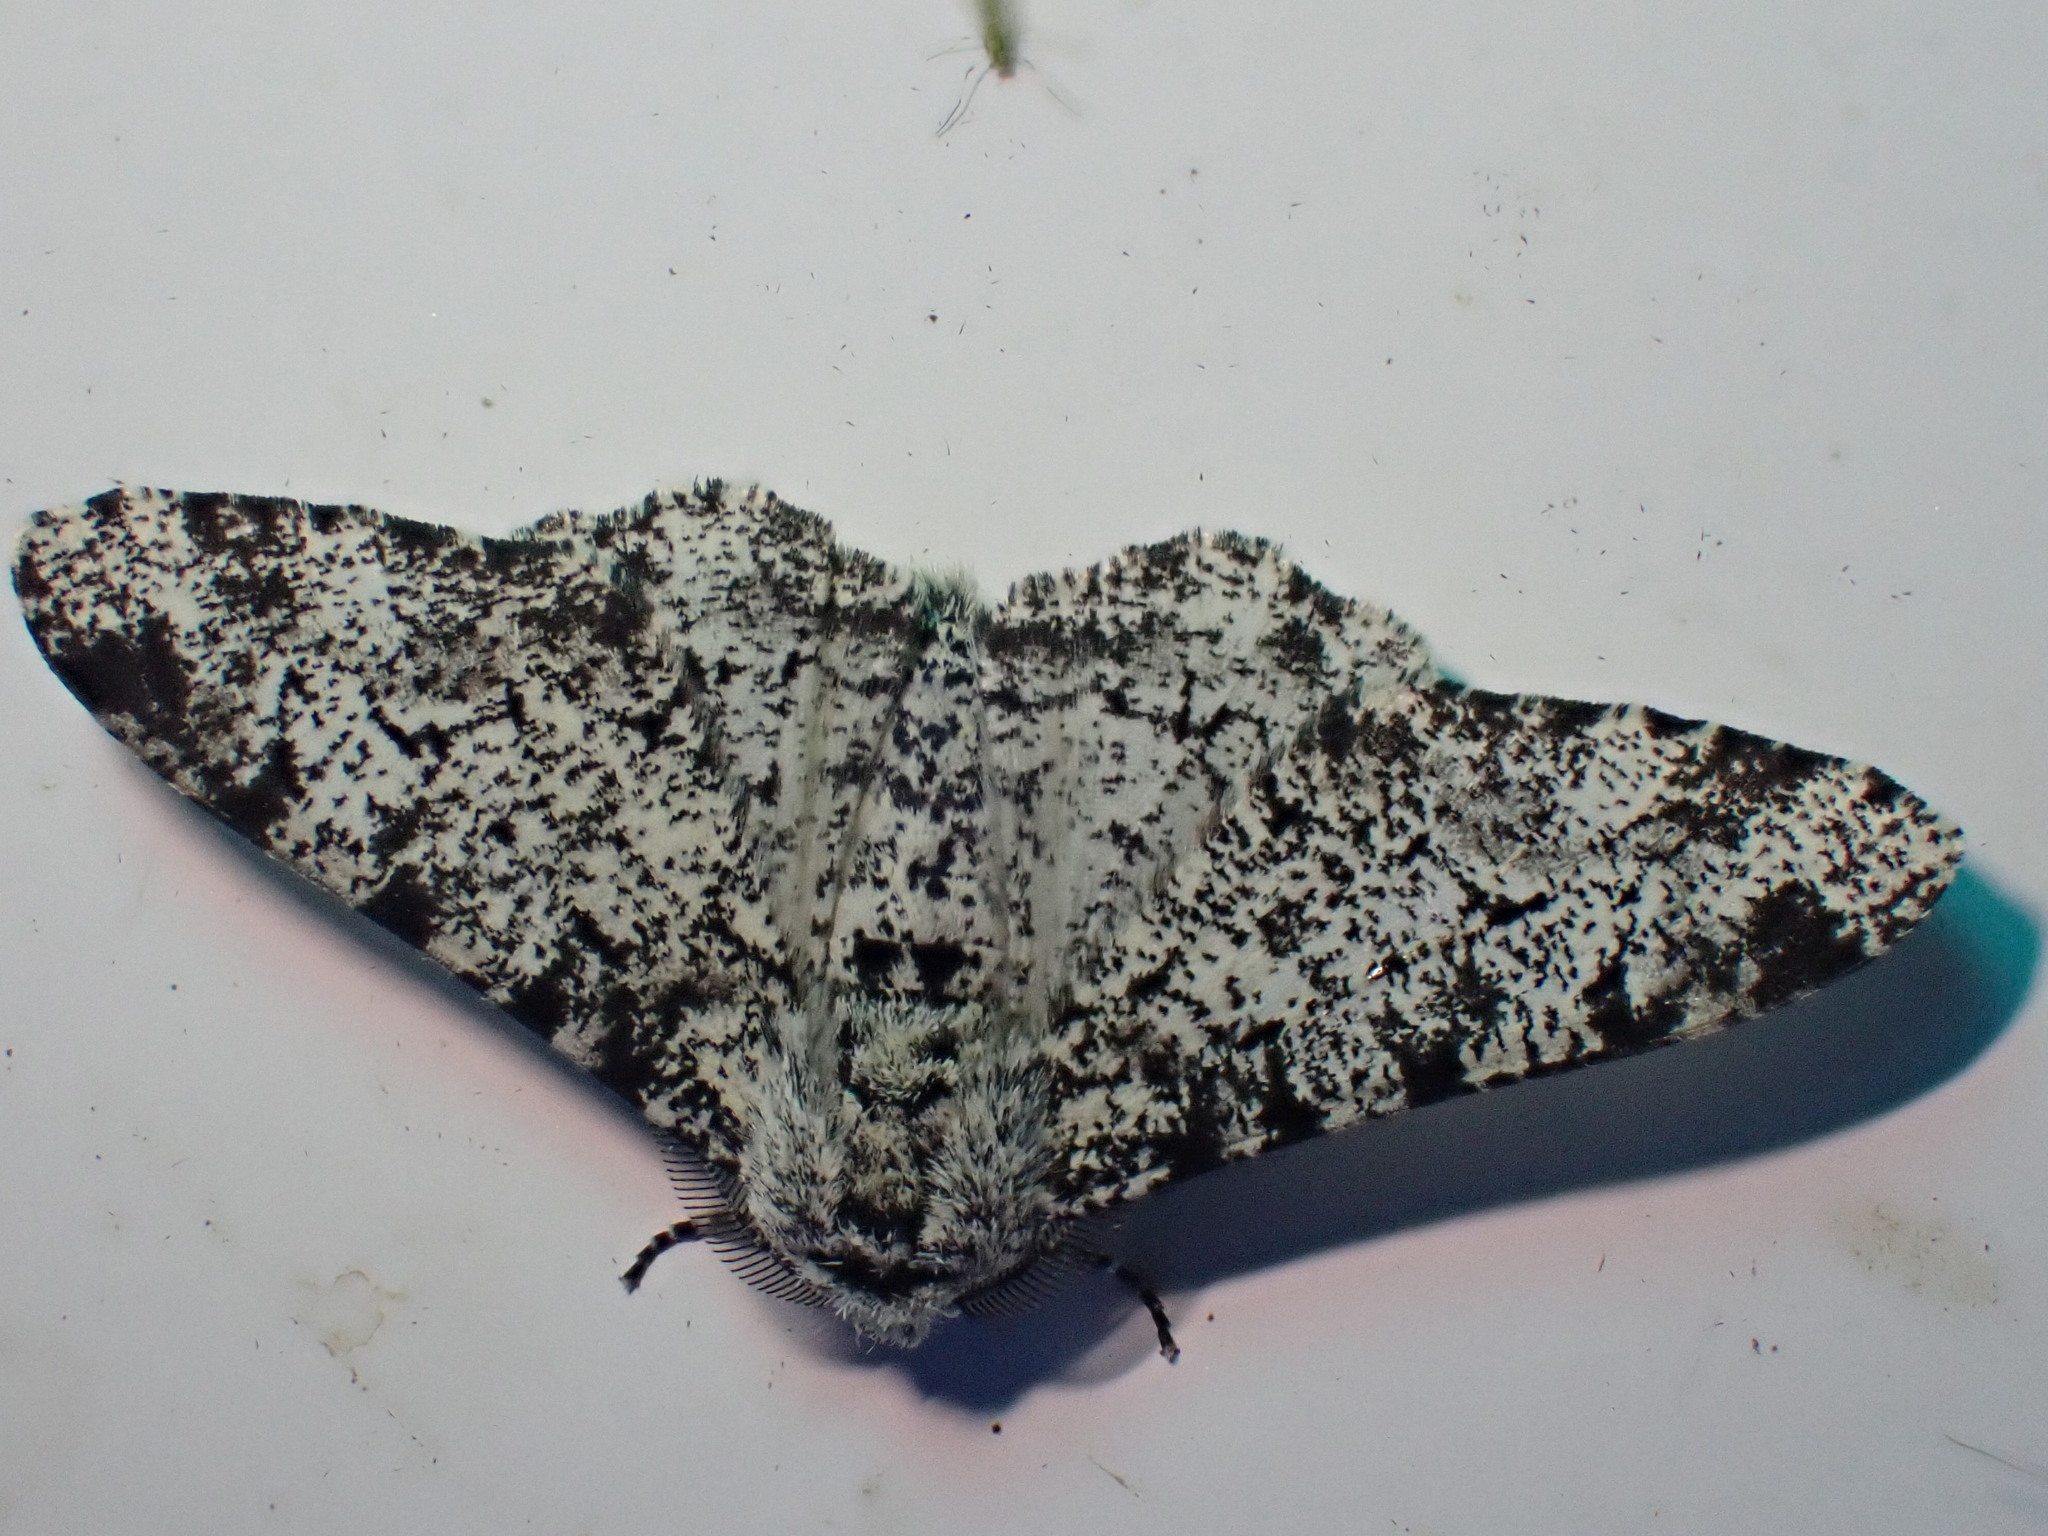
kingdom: Animalia
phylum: Arthropoda
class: Insecta
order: Lepidoptera
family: Geometridae
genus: Biston
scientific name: Biston betularia
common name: Peppered moth
